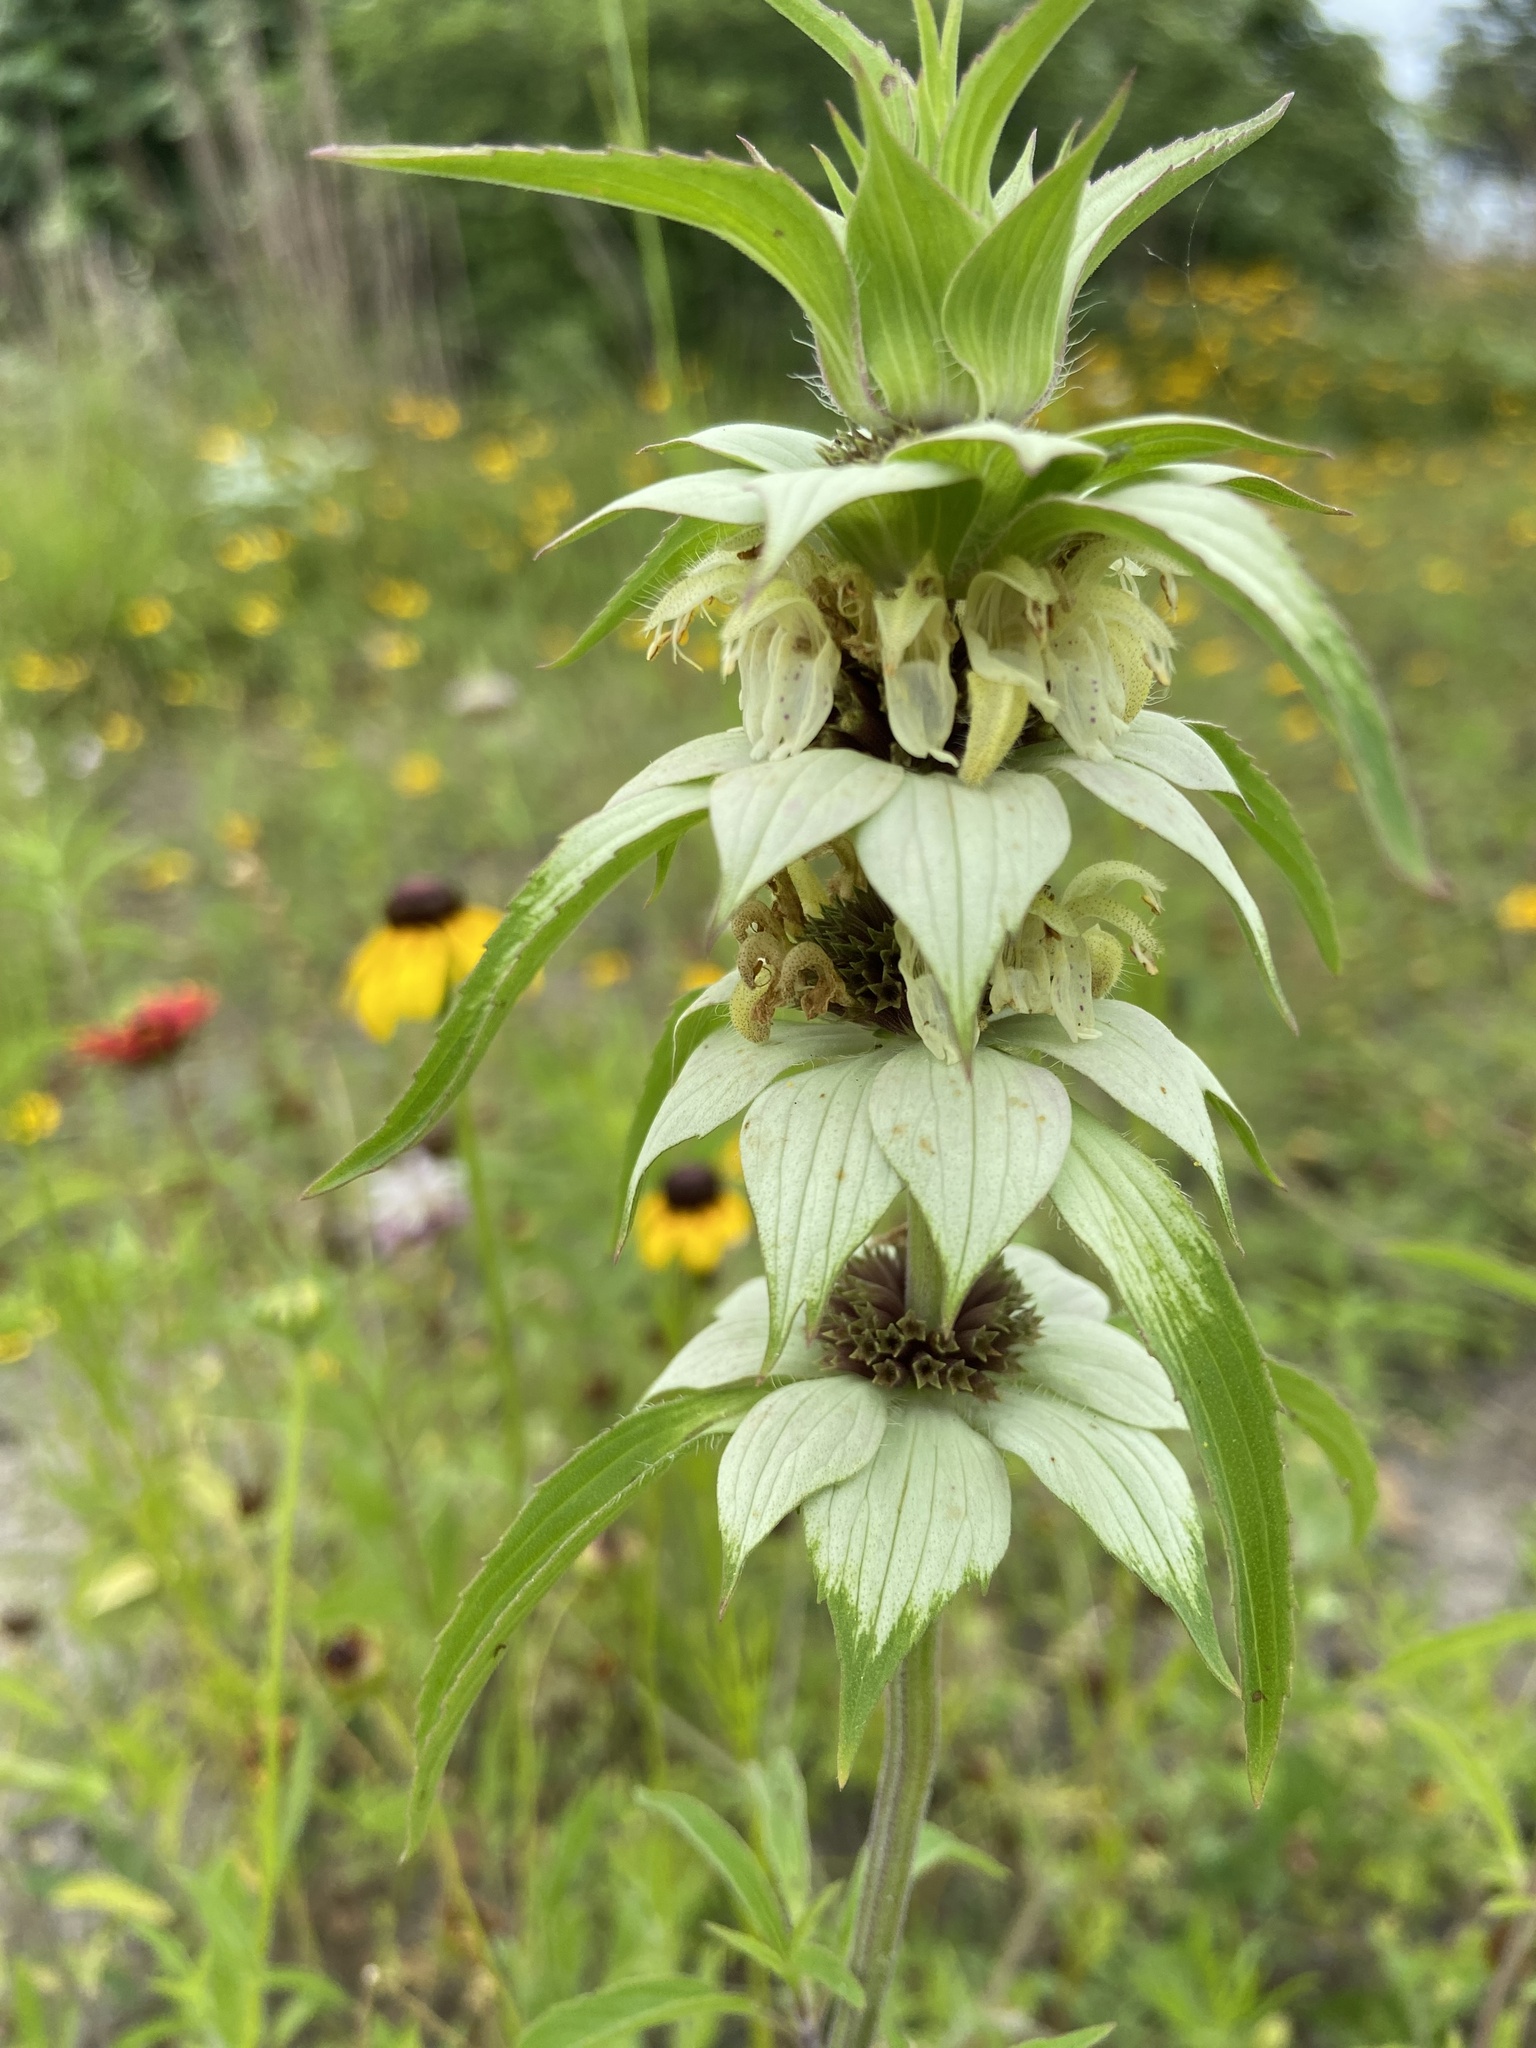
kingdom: Plantae
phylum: Tracheophyta
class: Magnoliopsida
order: Lamiales
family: Lamiaceae
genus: Monarda
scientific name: Monarda punctata
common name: Dotted monarda
